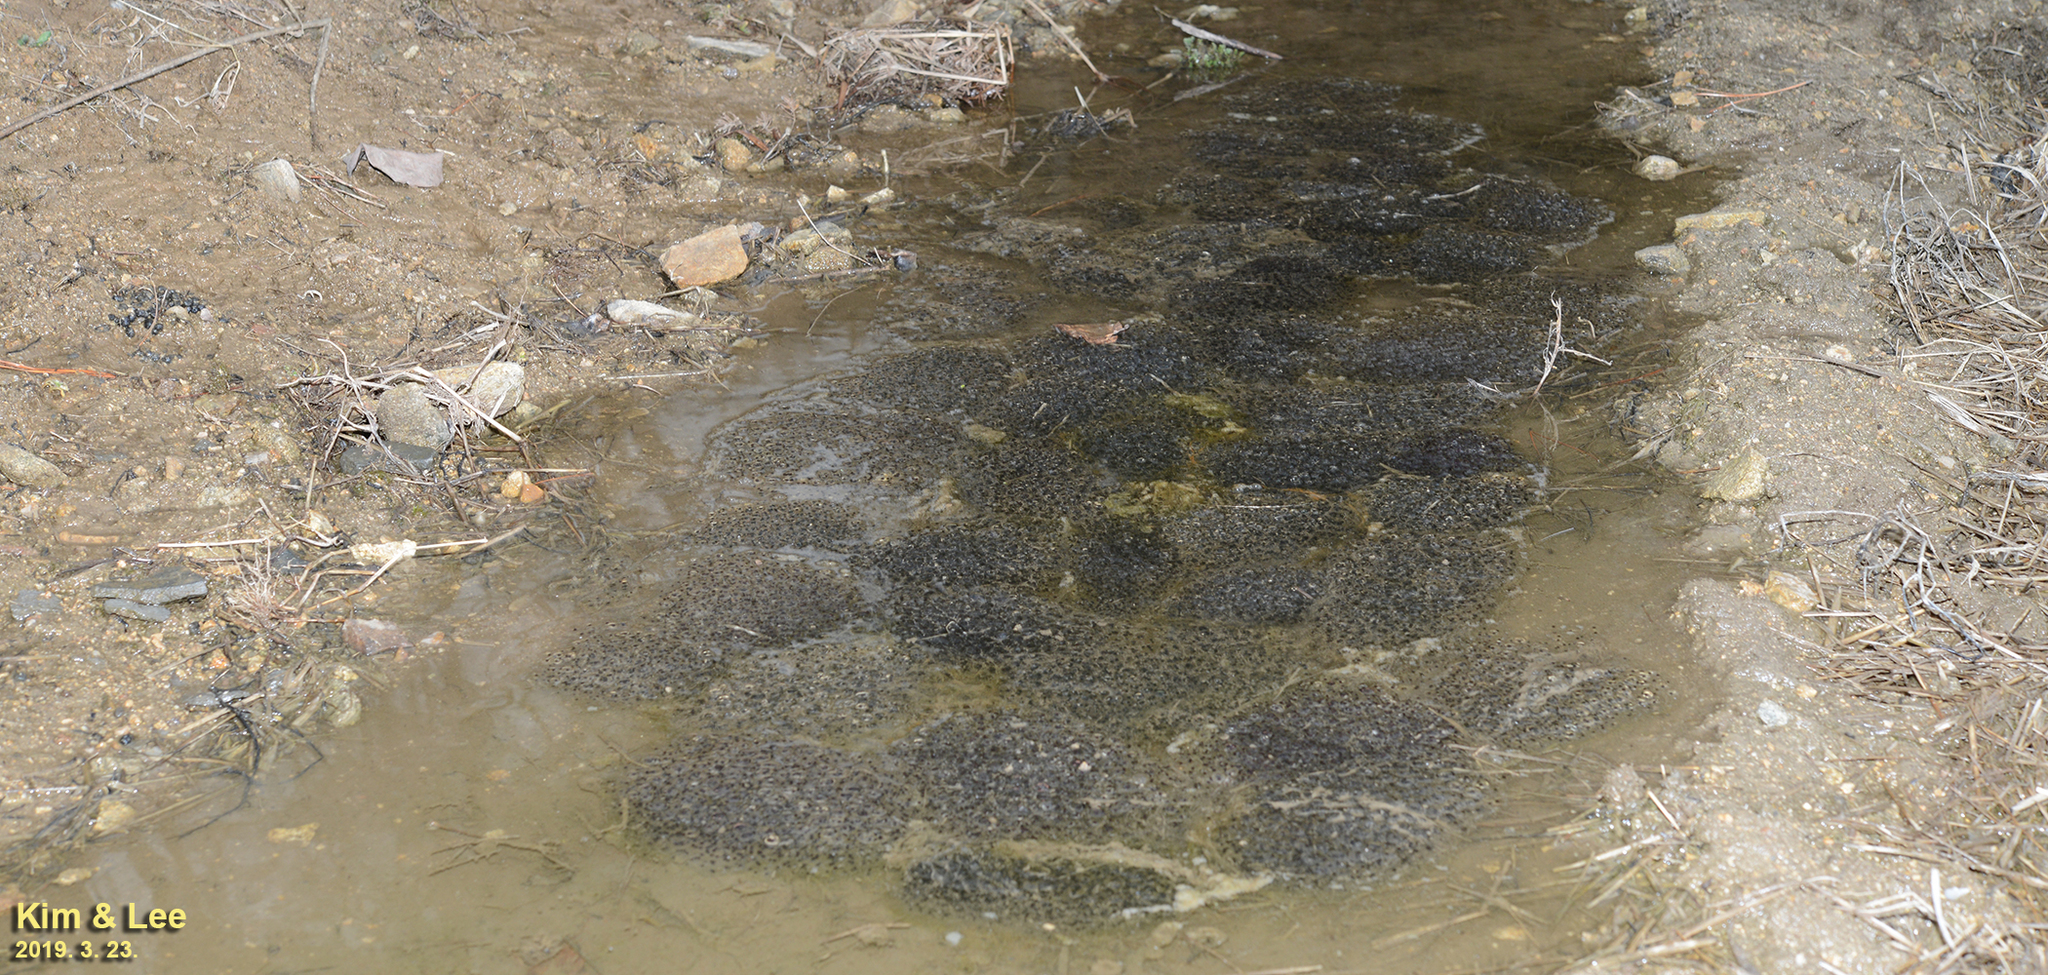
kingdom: Animalia
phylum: Chordata
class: Amphibia
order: Anura
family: Ranidae
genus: Rana
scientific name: Rana uenoi
